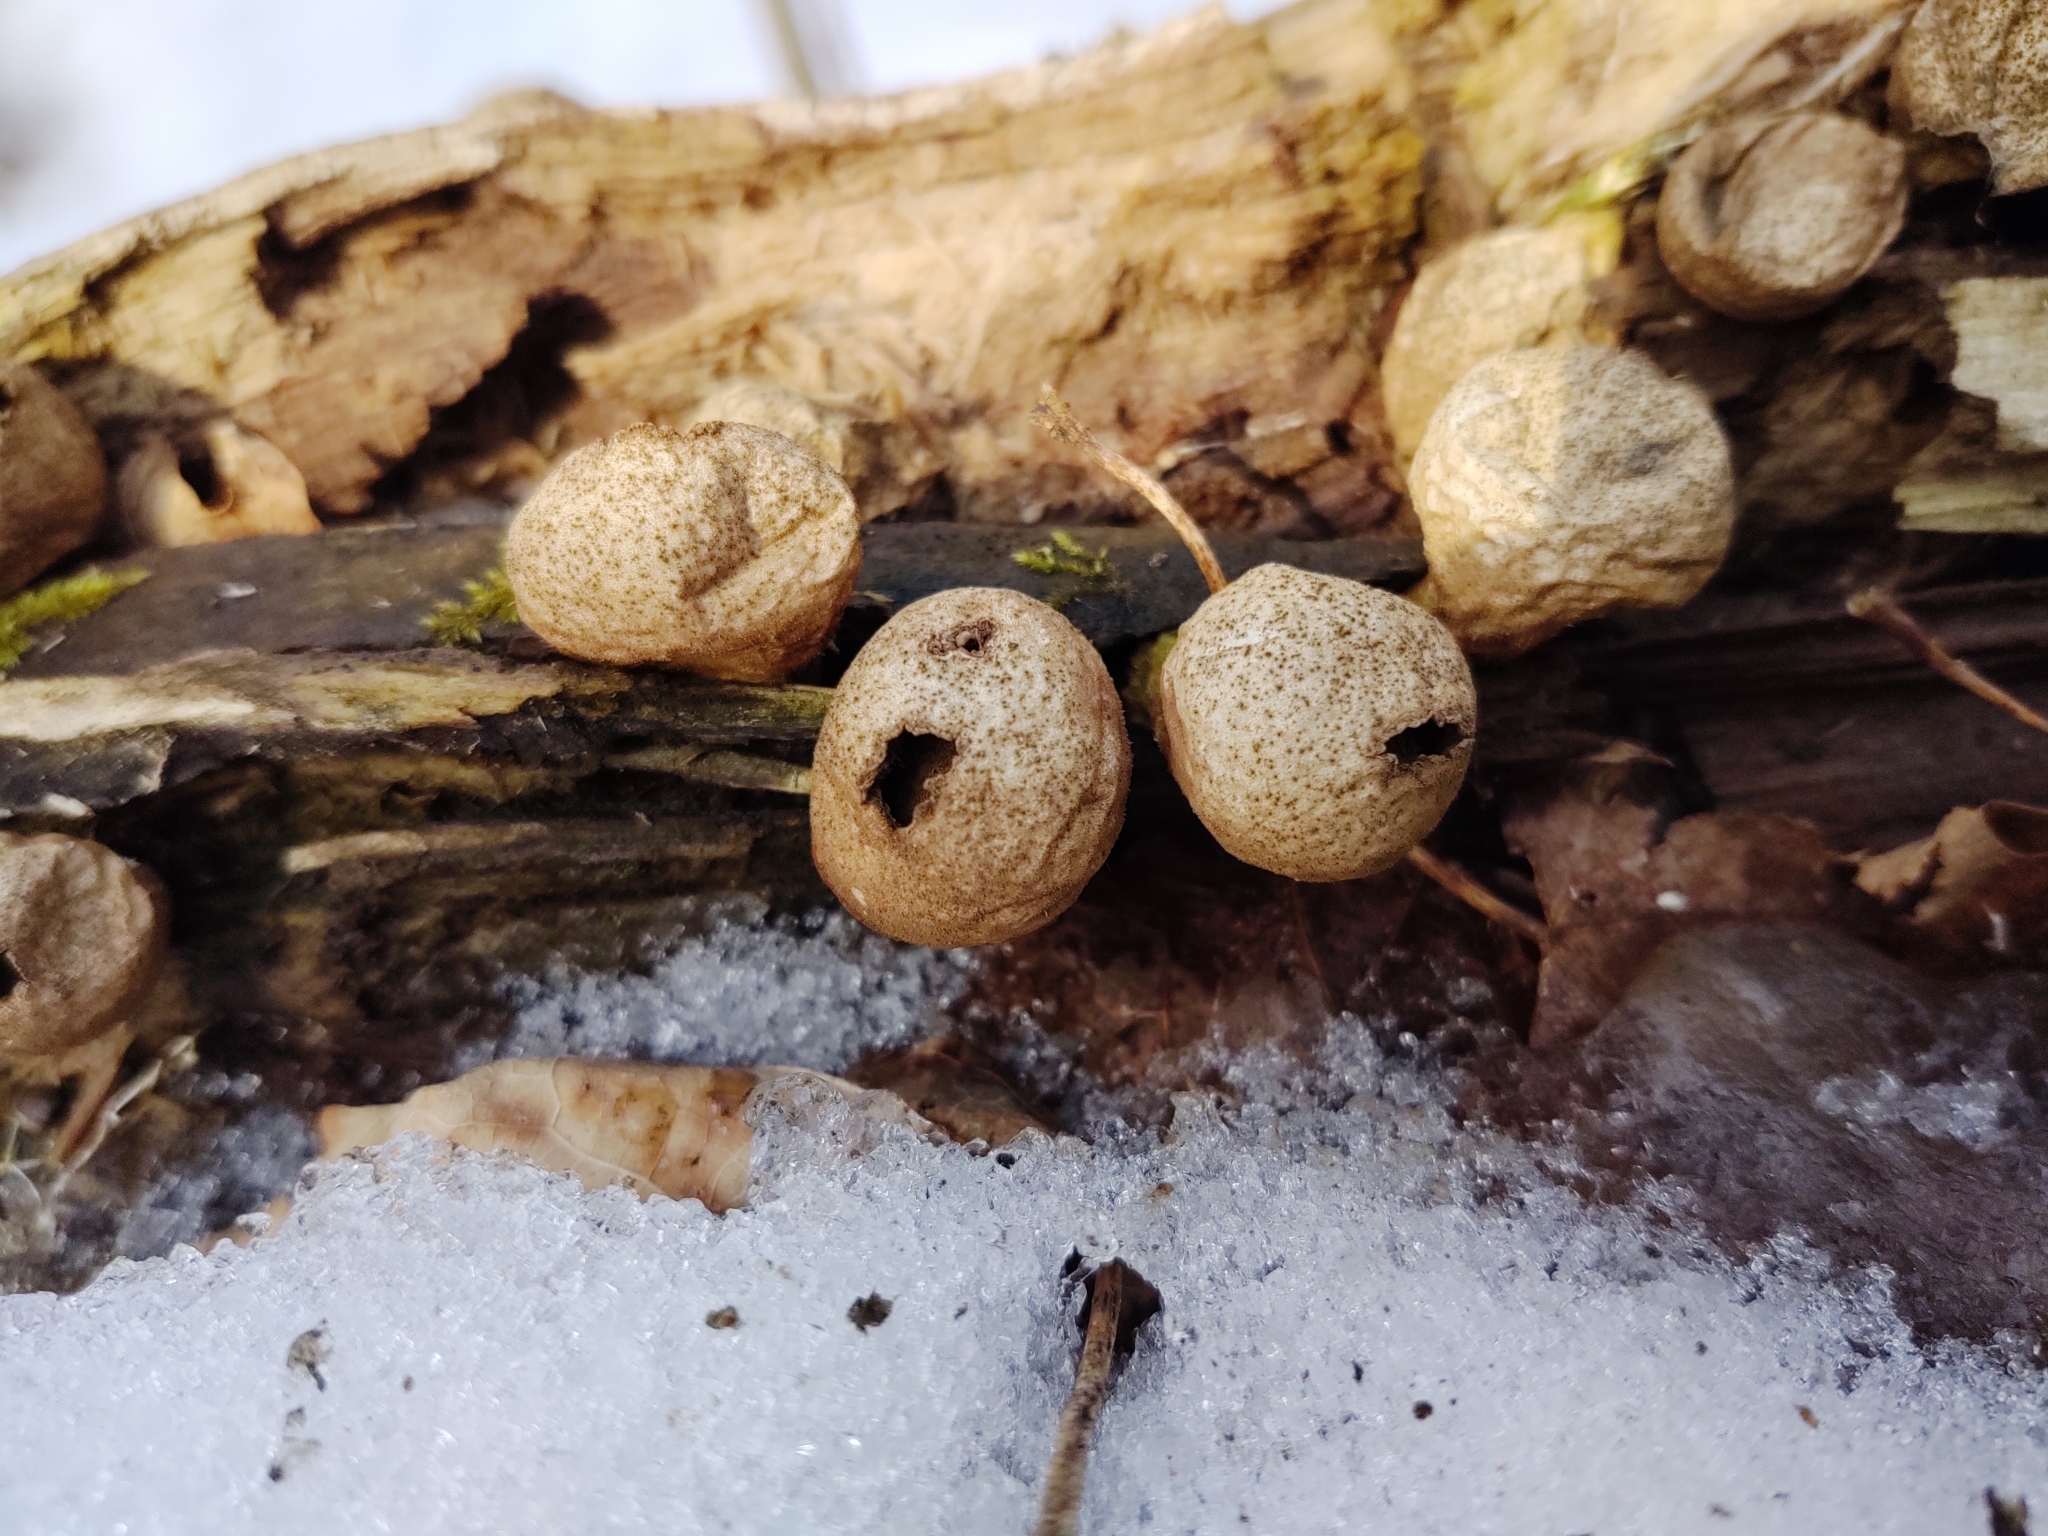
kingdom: Fungi
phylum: Basidiomycota
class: Agaricomycetes
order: Agaricales
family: Lycoperdaceae
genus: Apioperdon
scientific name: Apioperdon pyriforme
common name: Pear-shaped puffball
